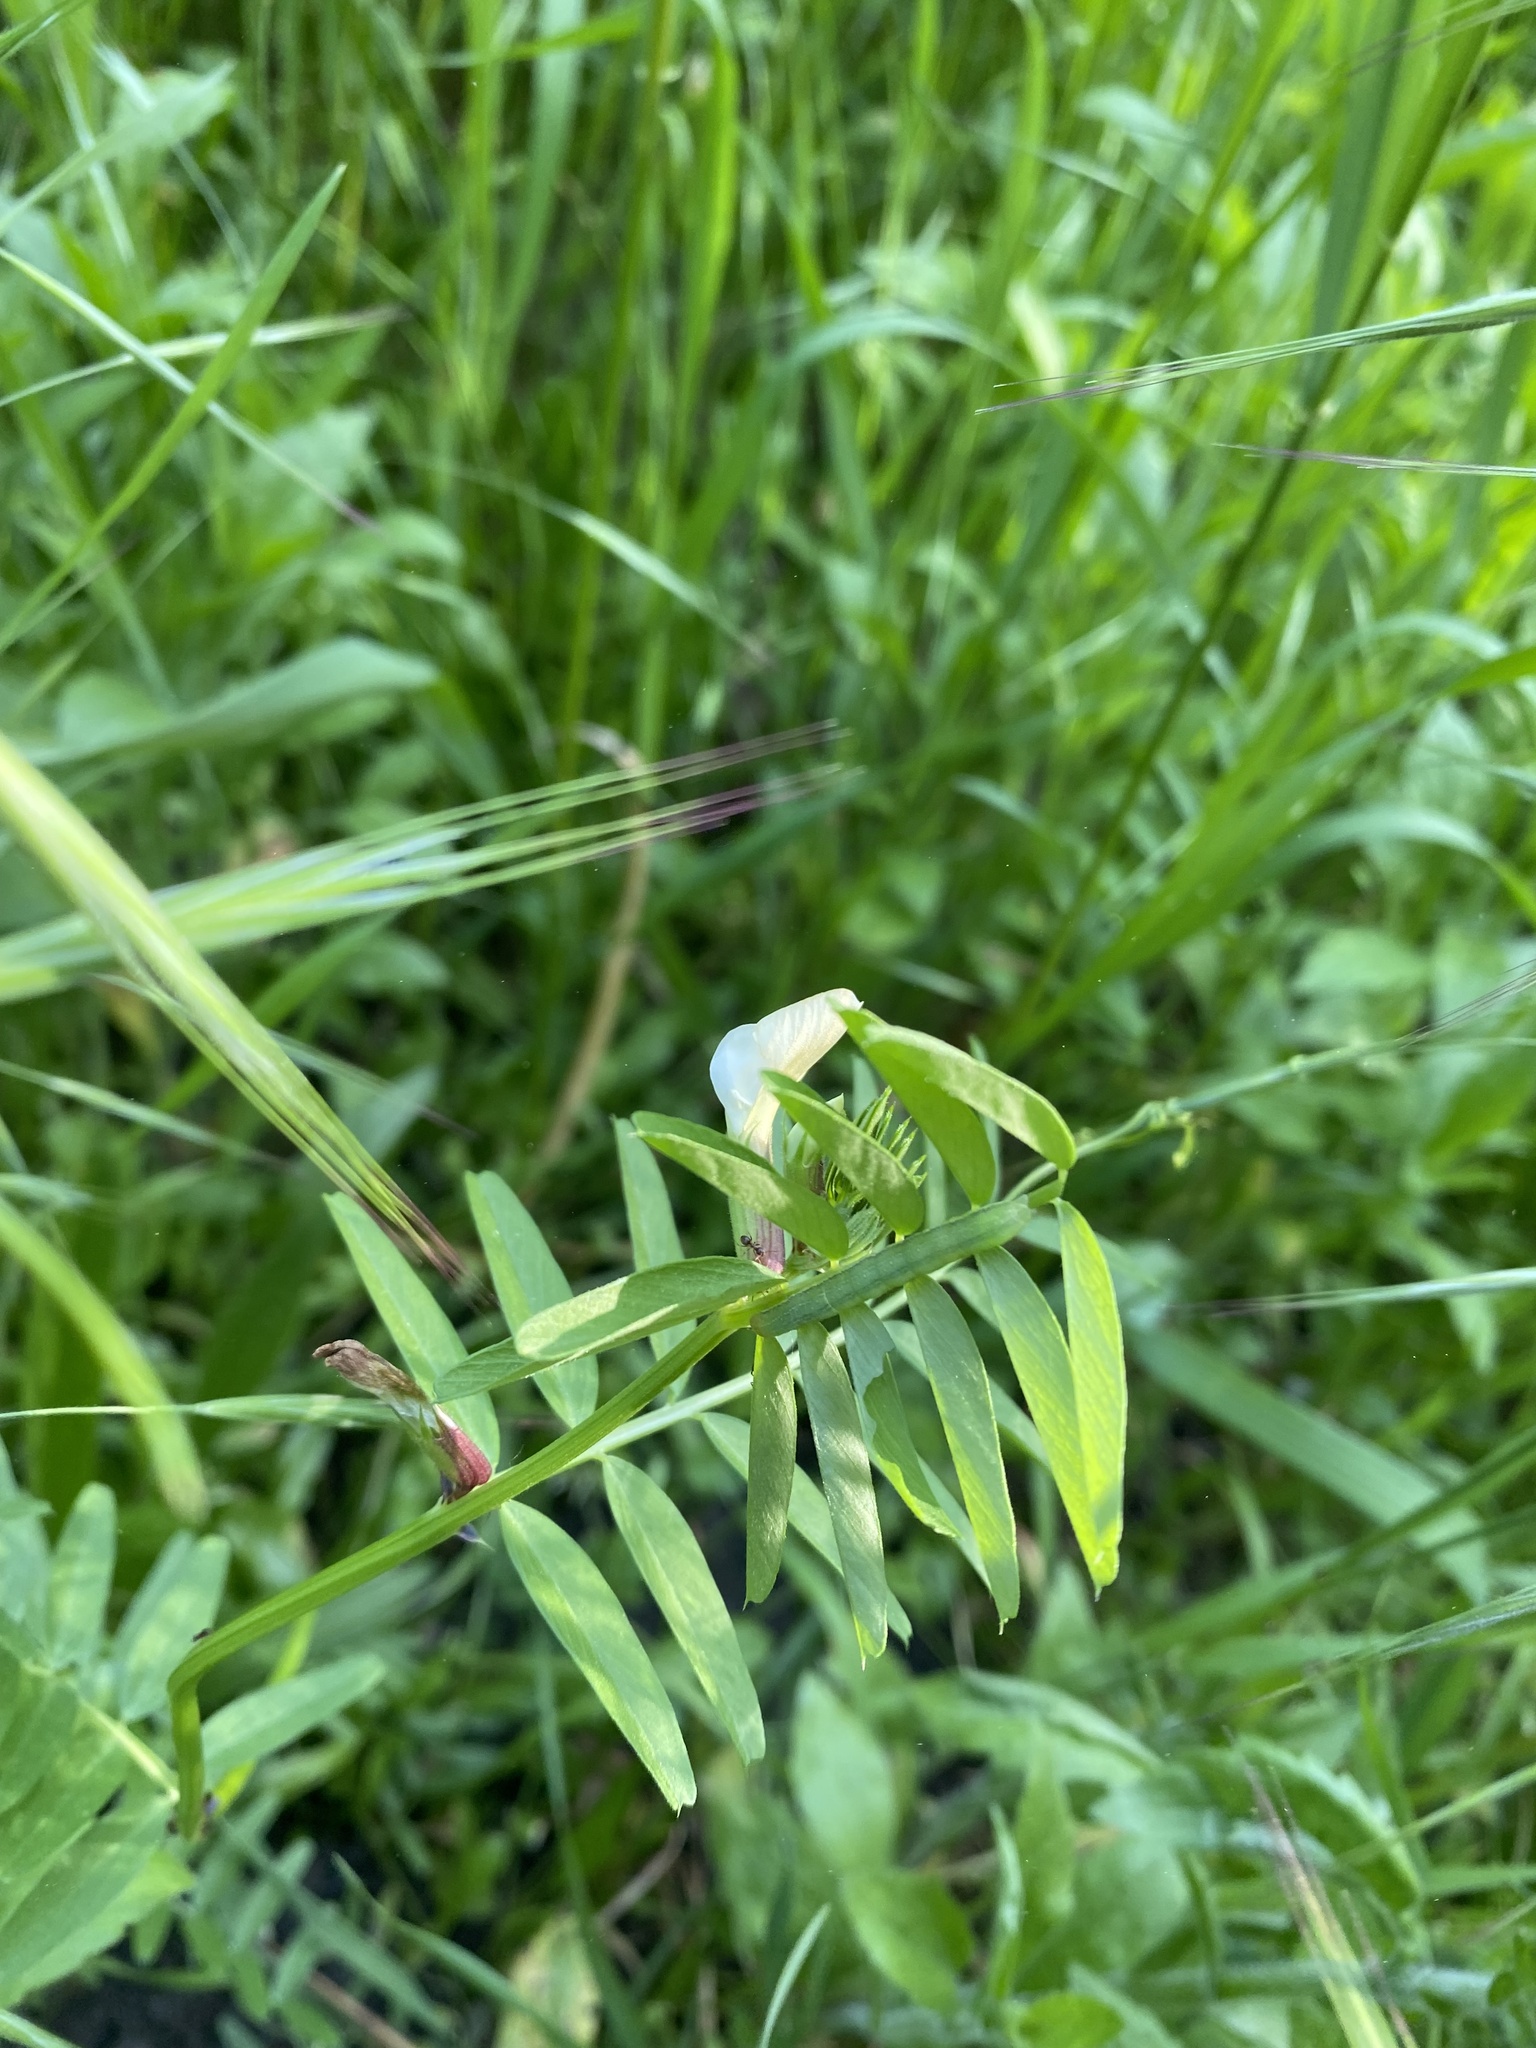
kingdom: Plantae
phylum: Tracheophyta
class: Magnoliopsida
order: Fabales
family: Fabaceae
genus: Vicia
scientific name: Vicia grandiflora
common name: Large yellow vetch
